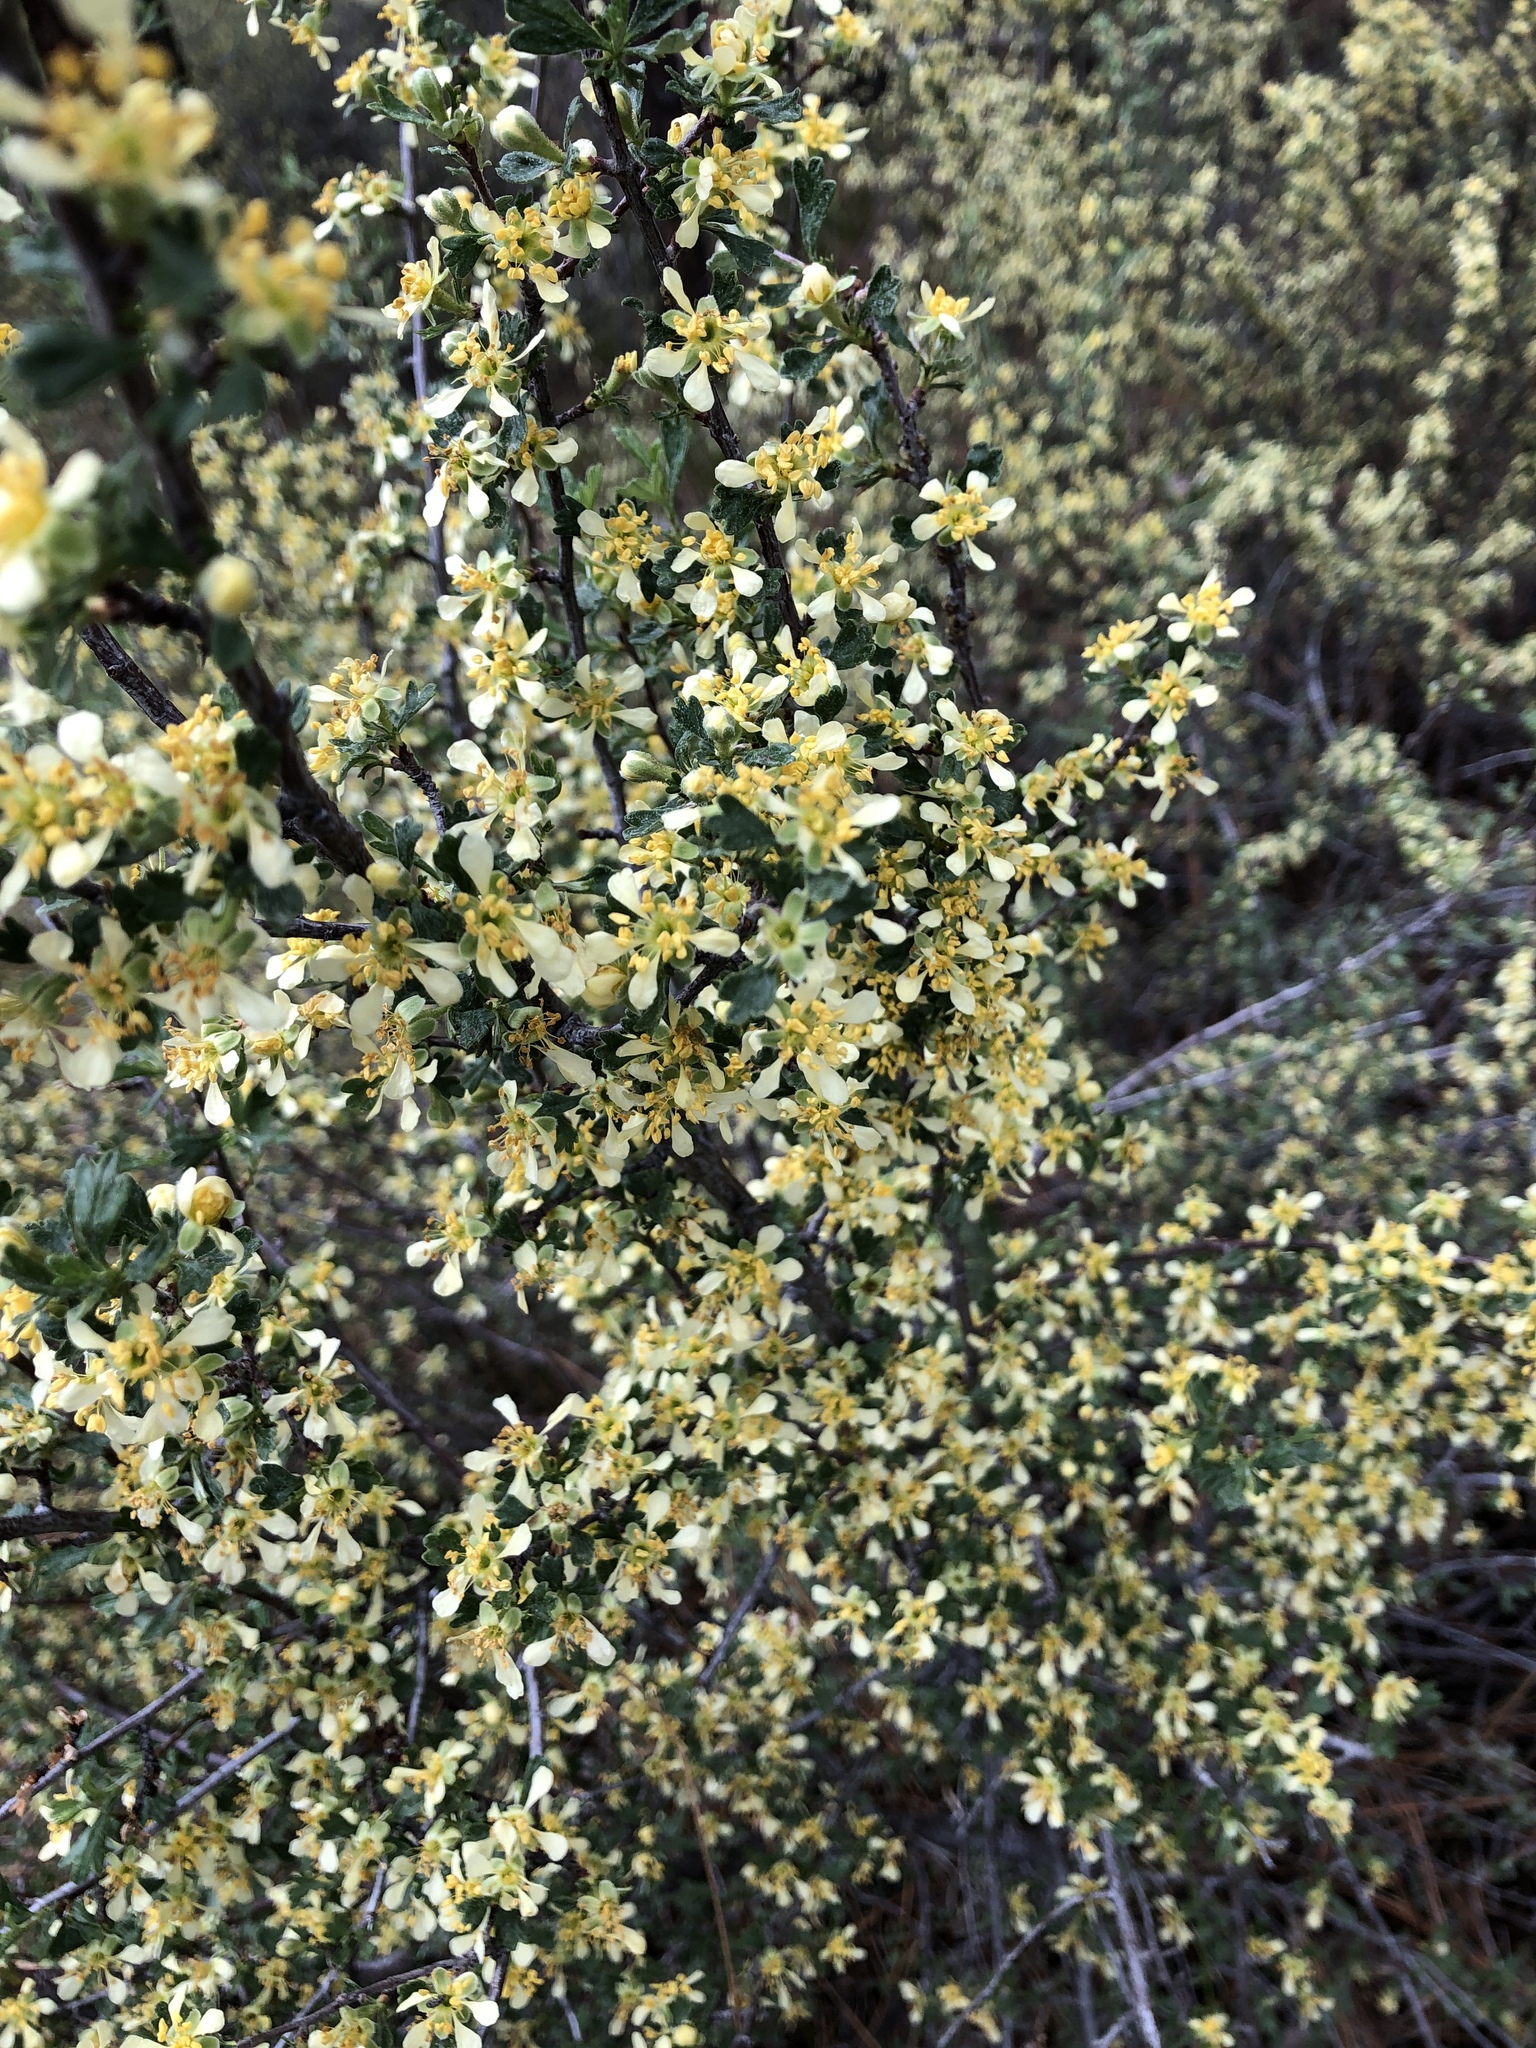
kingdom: Plantae
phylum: Tracheophyta
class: Magnoliopsida
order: Rosales
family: Rosaceae
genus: Purshia
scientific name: Purshia tridentata
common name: Antelope bitterbrush
